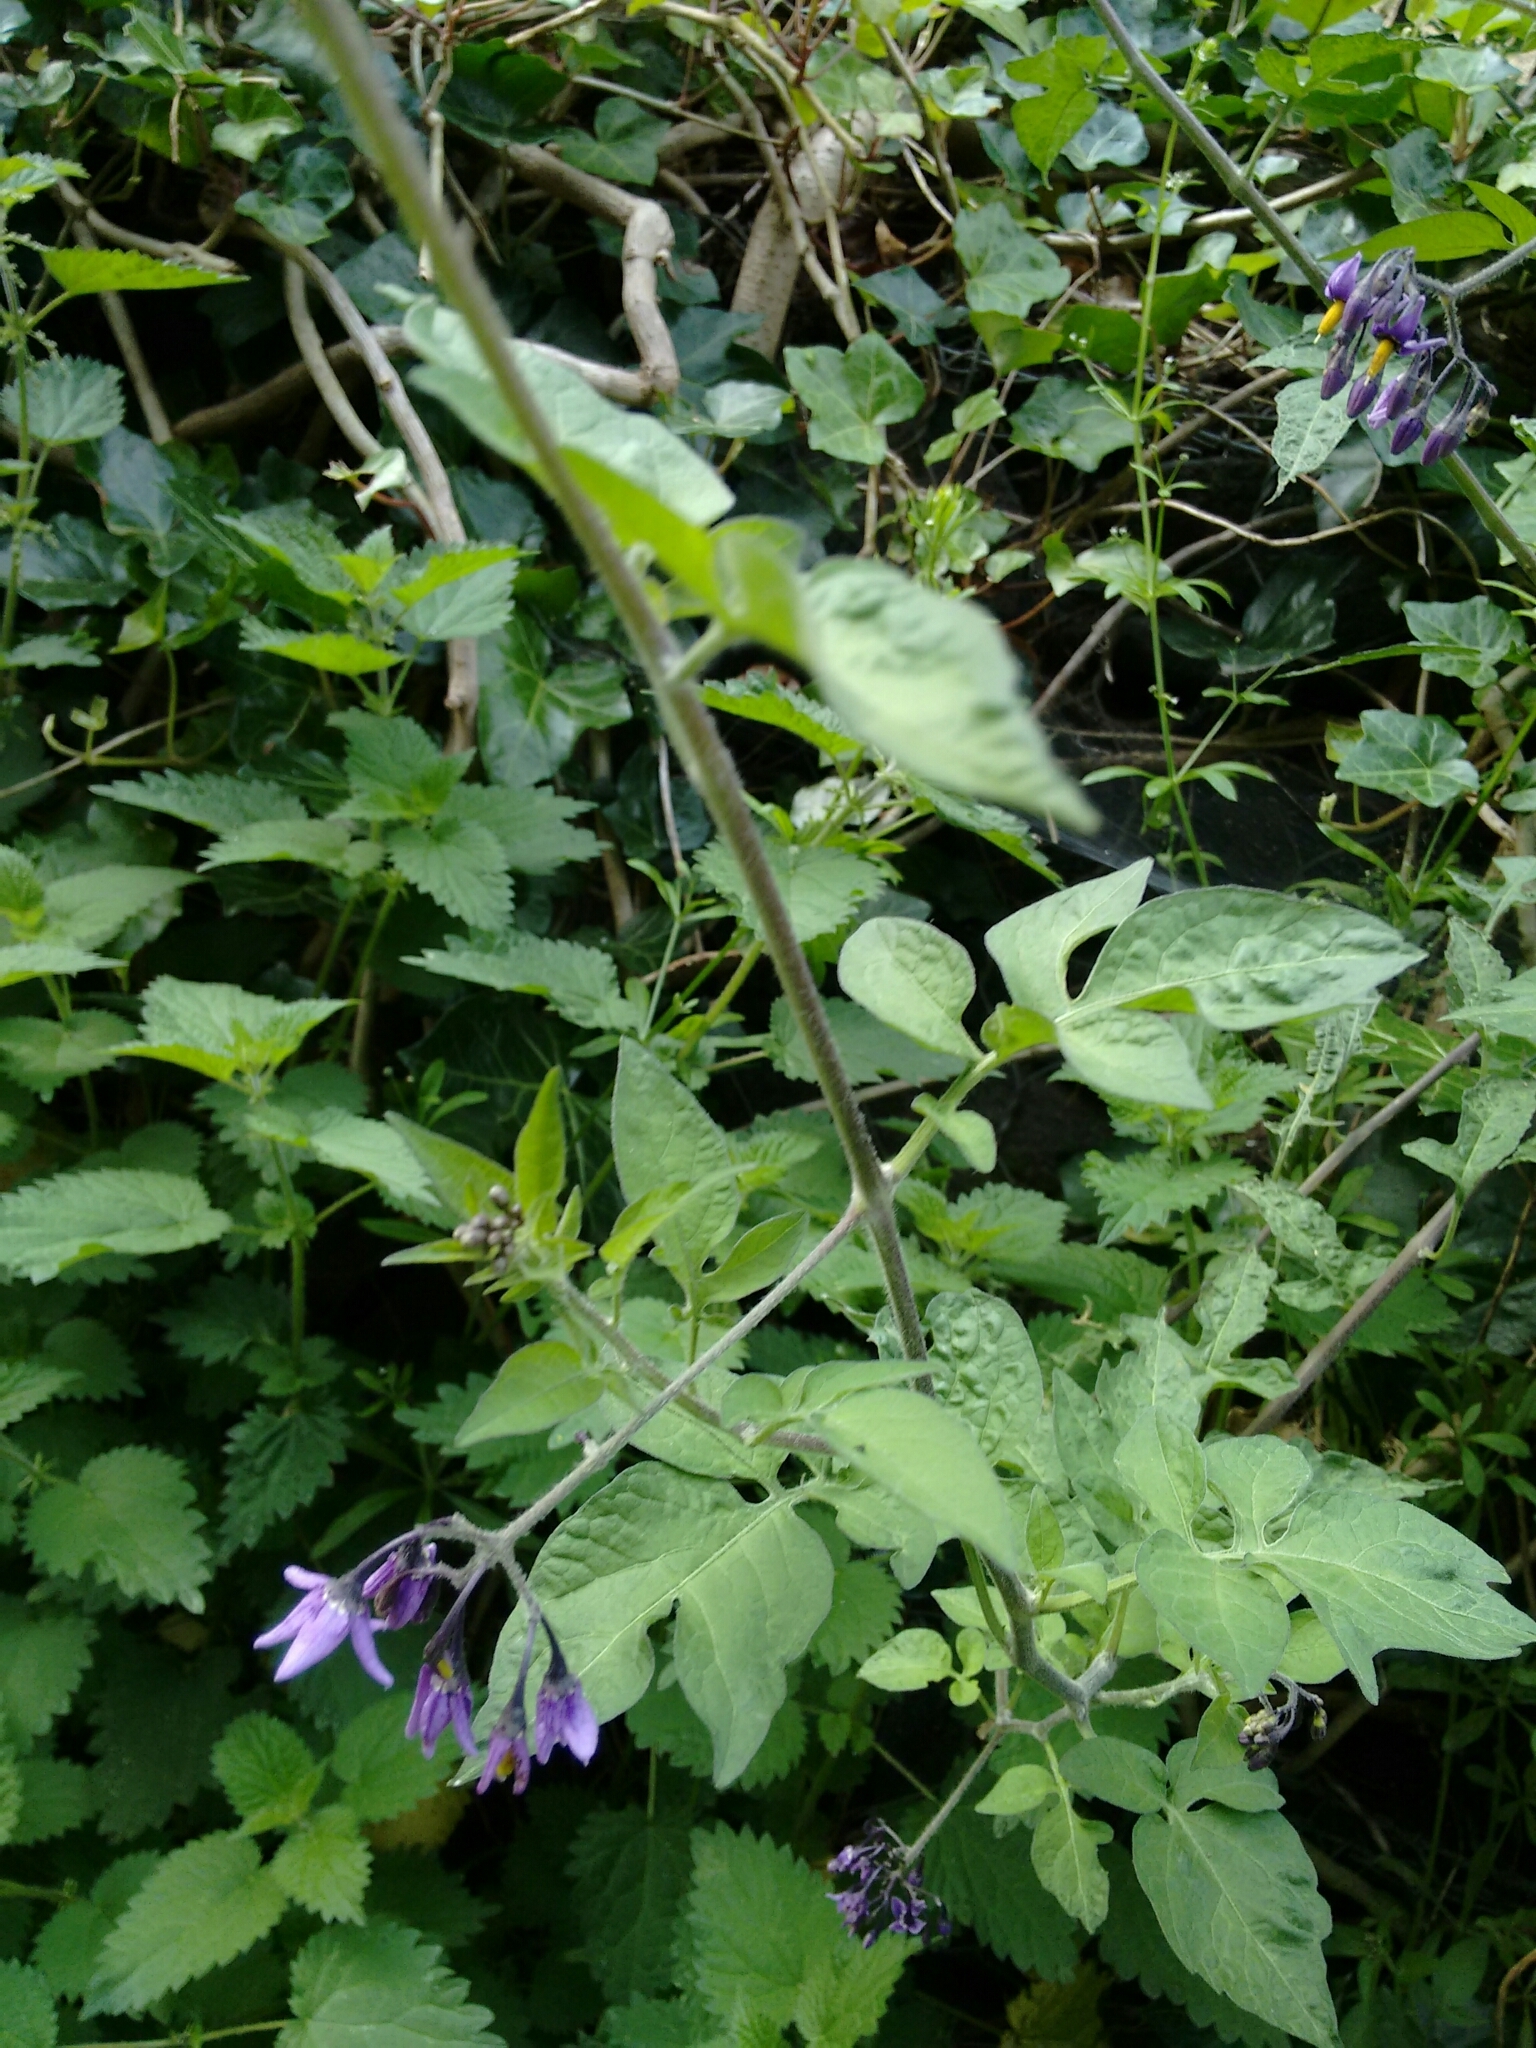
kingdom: Plantae
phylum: Tracheophyta
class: Magnoliopsida
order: Solanales
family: Solanaceae
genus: Solanum
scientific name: Solanum dulcamara
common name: Climbing nightshade
